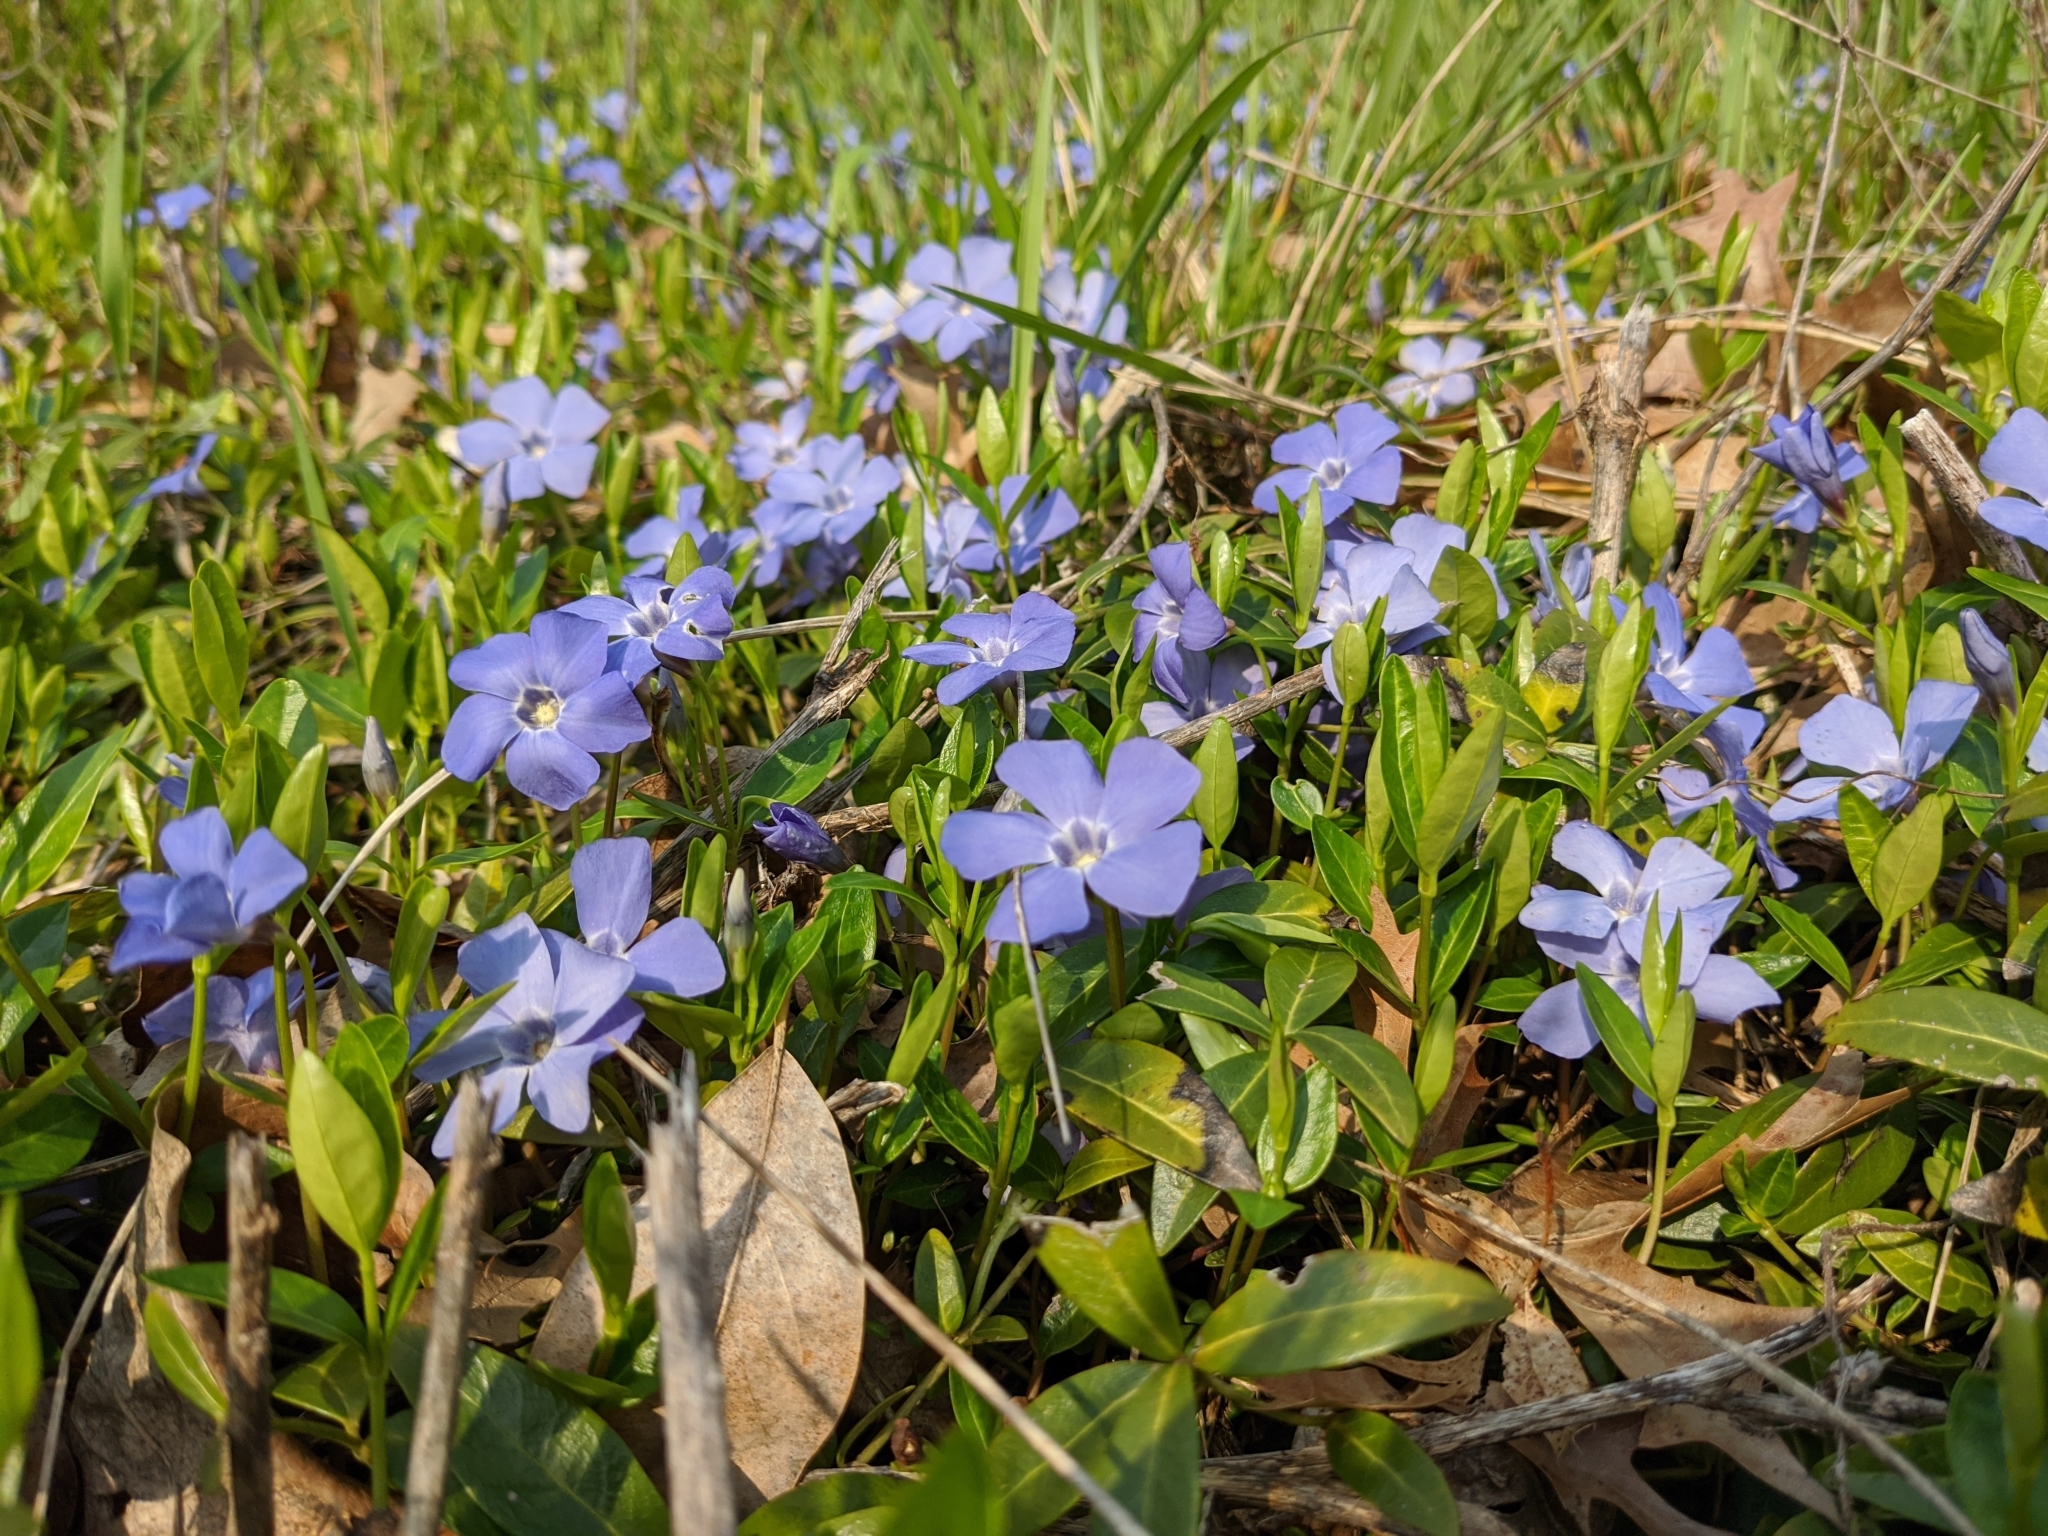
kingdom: Plantae
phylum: Tracheophyta
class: Magnoliopsida
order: Gentianales
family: Apocynaceae
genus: Vinca
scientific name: Vinca minor
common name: Lesser periwinkle
